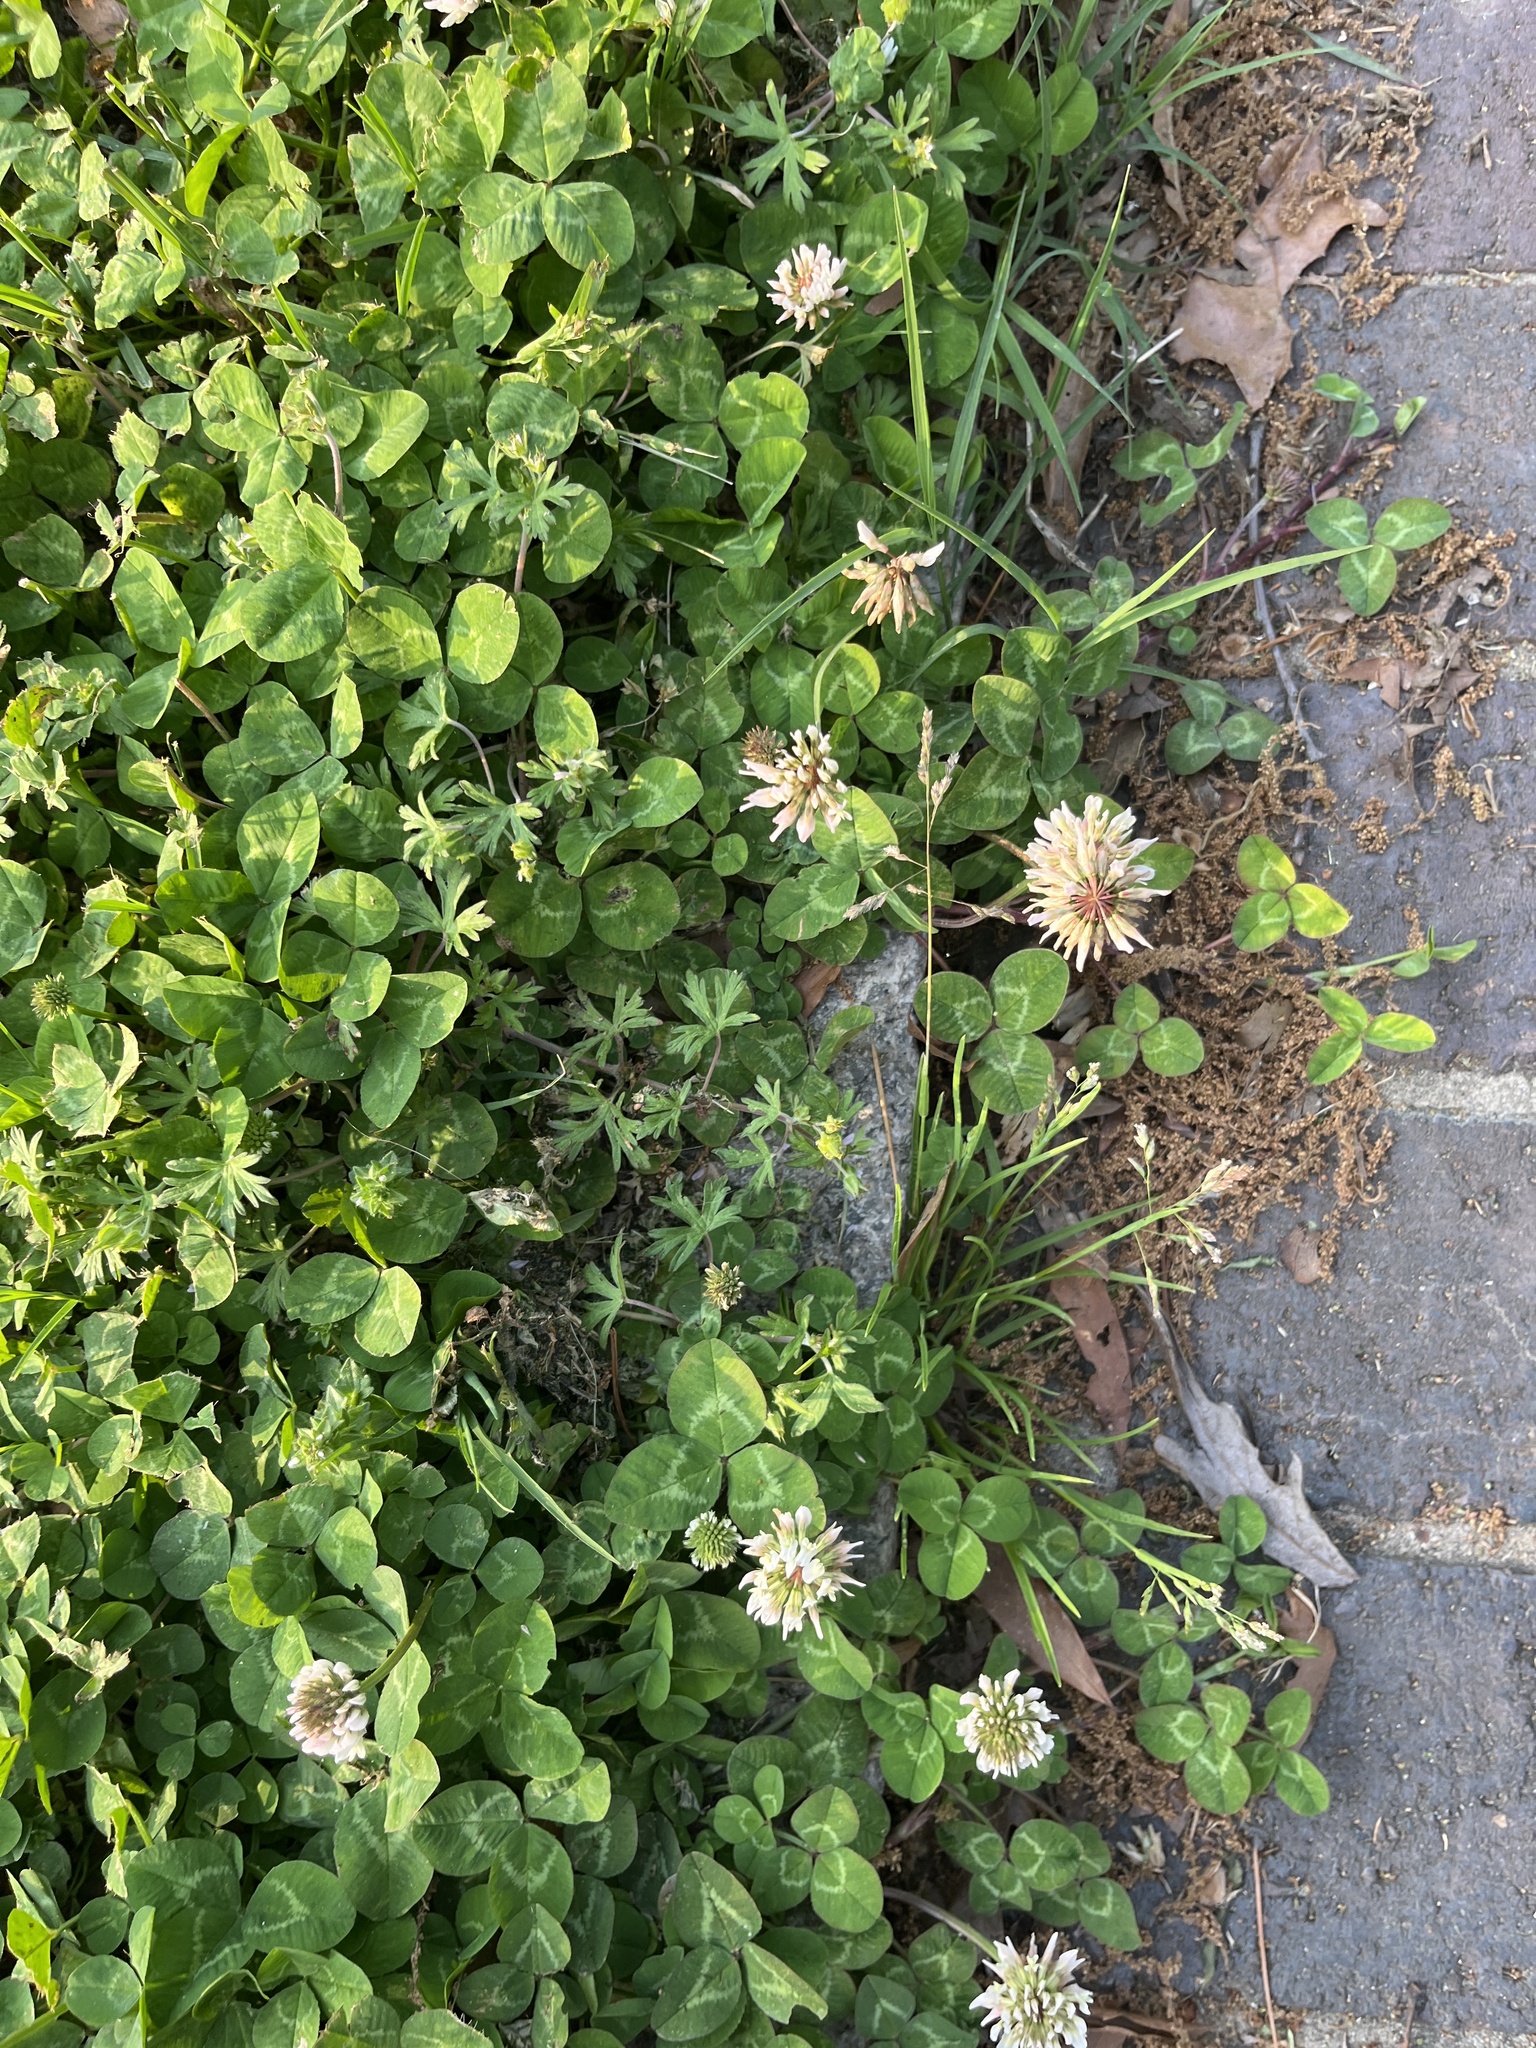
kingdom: Plantae
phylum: Tracheophyta
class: Magnoliopsida
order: Fabales
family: Fabaceae
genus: Trifolium
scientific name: Trifolium repens
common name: White clover
